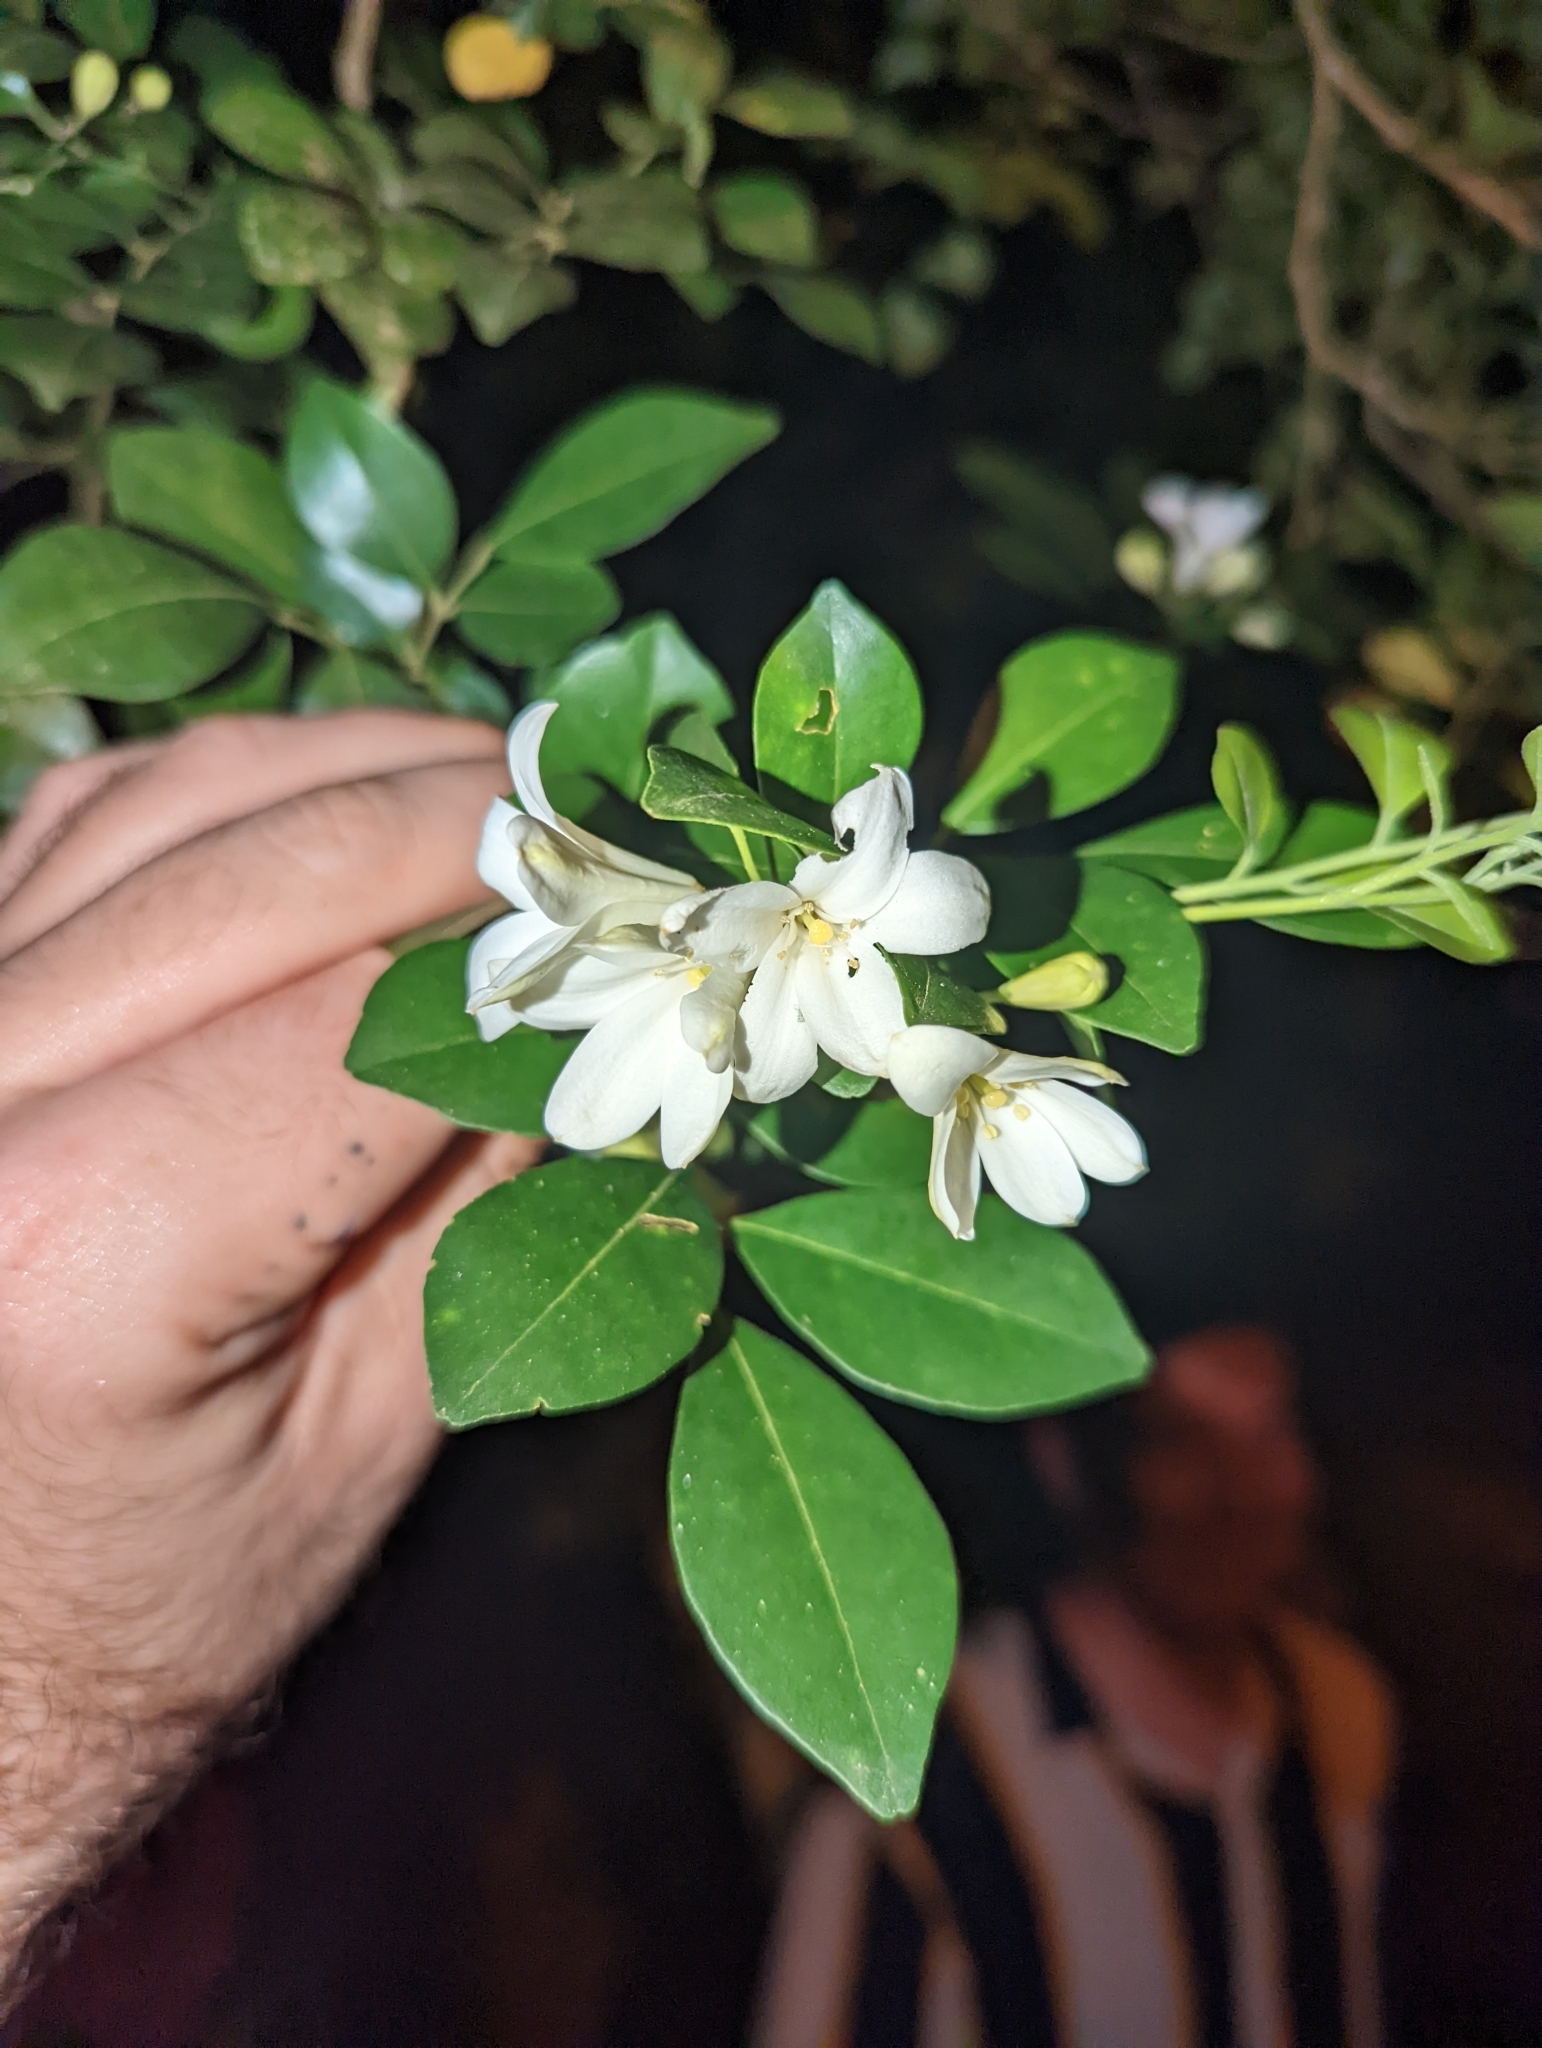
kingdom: Plantae
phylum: Tracheophyta
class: Magnoliopsida
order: Sapindales
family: Rutaceae
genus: Murraya
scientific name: Murraya paniculata
